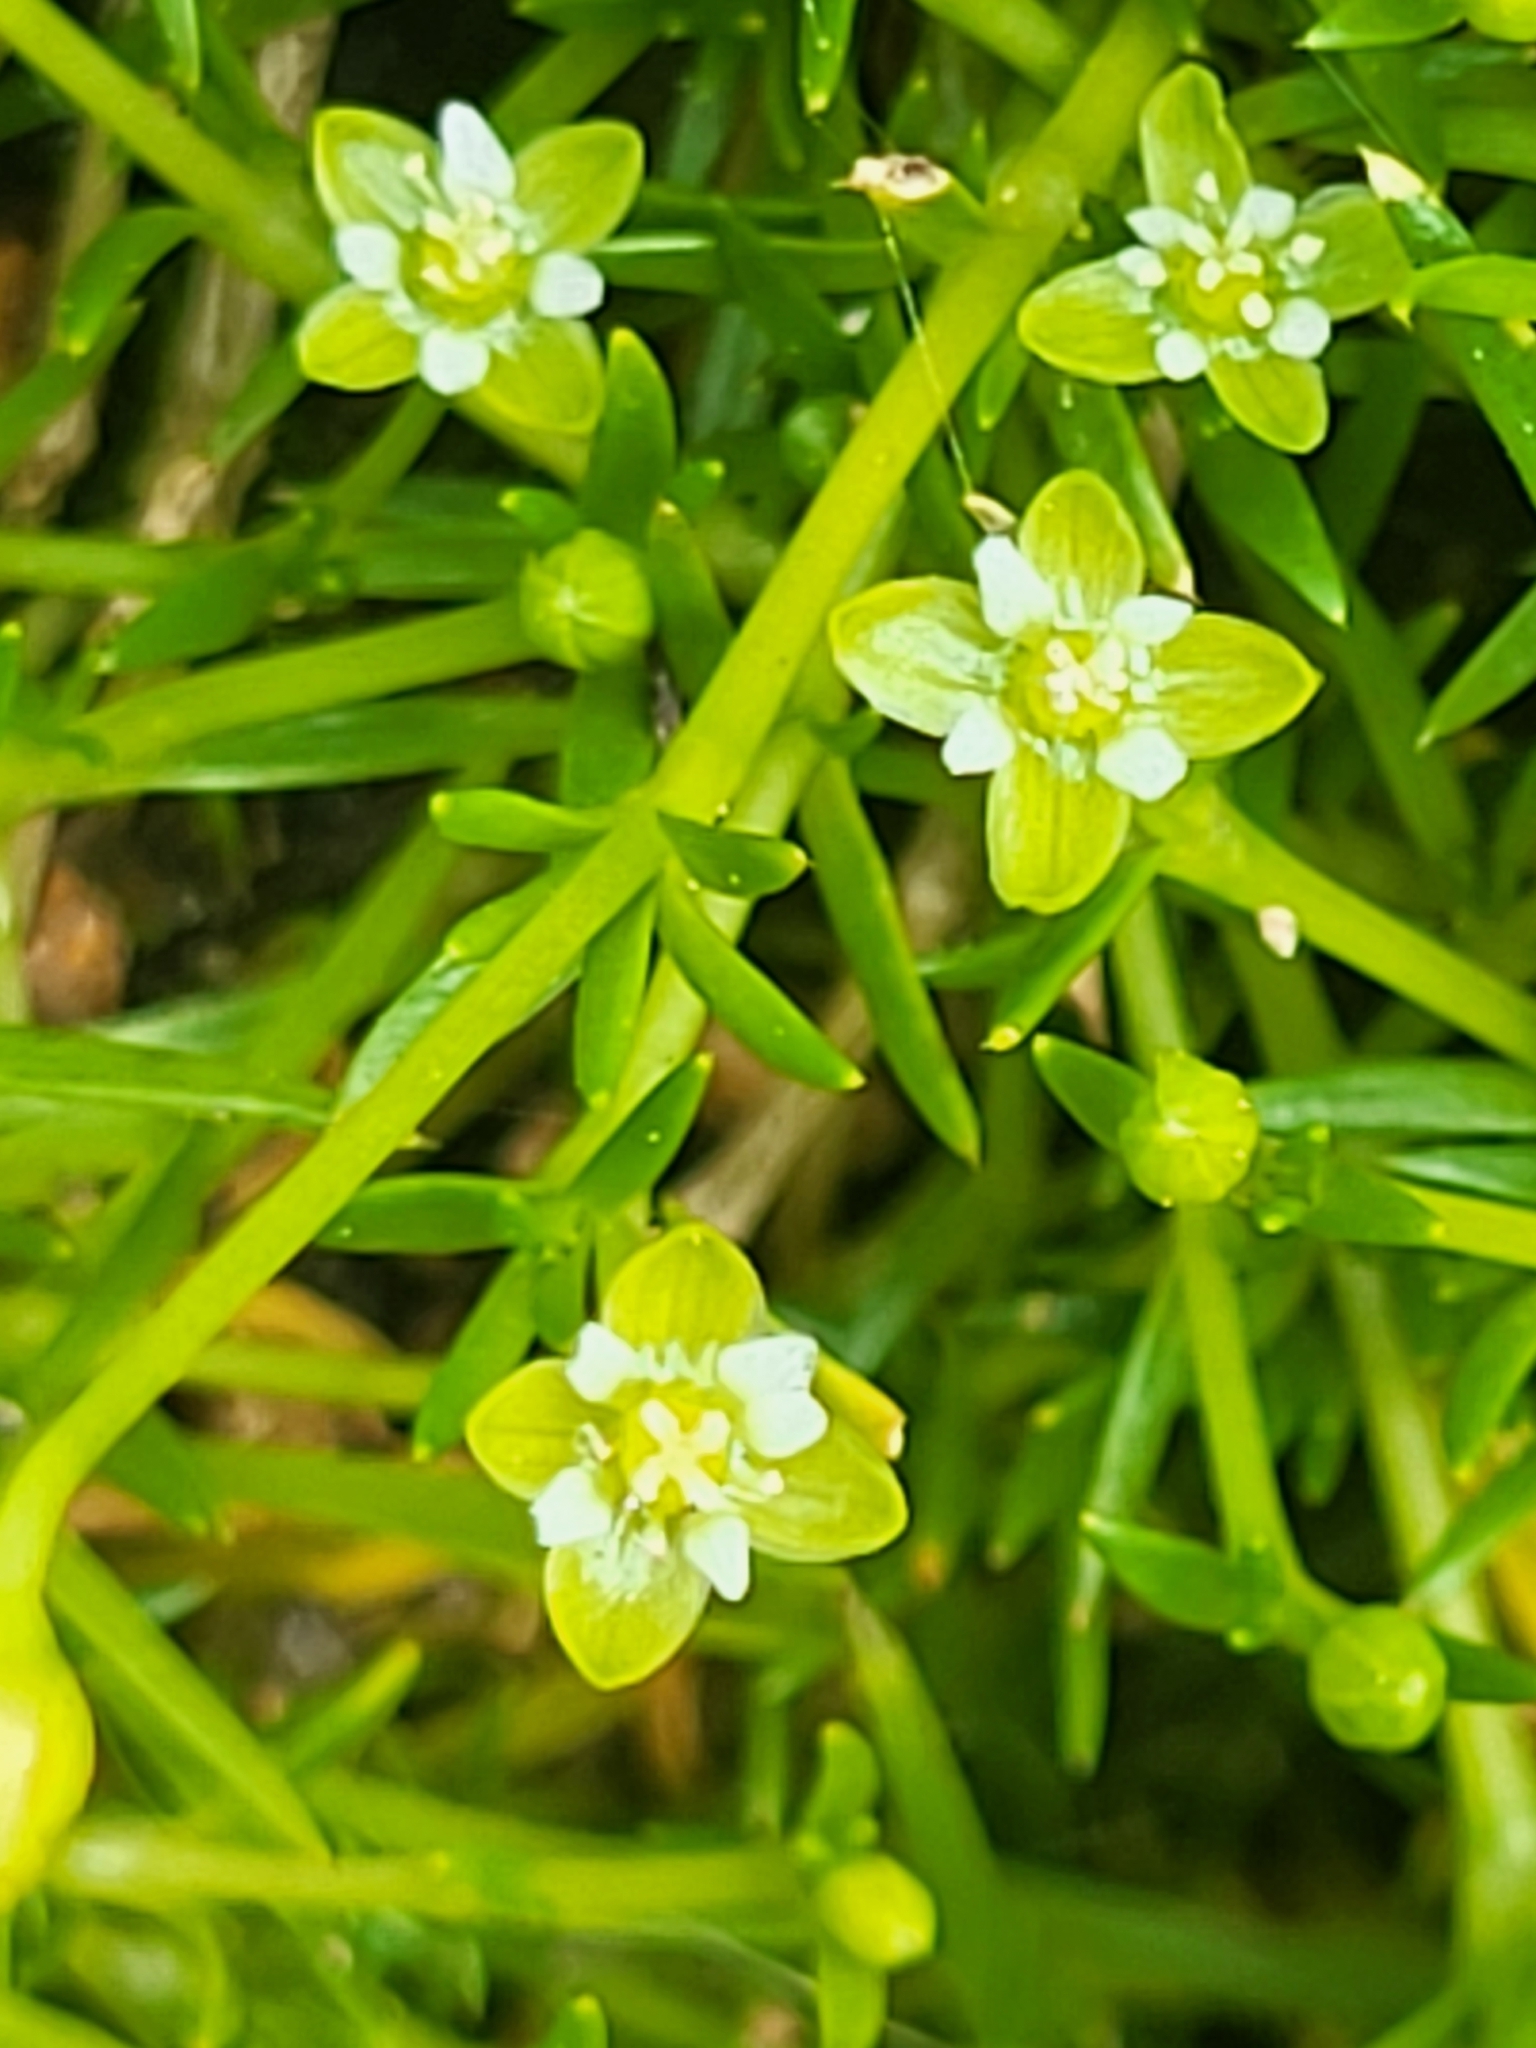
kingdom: Plantae
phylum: Tracheophyta
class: Magnoliopsida
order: Caryophyllales
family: Caryophyllaceae
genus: Sagina
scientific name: Sagina procumbens
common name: Procumbent pearlwort
